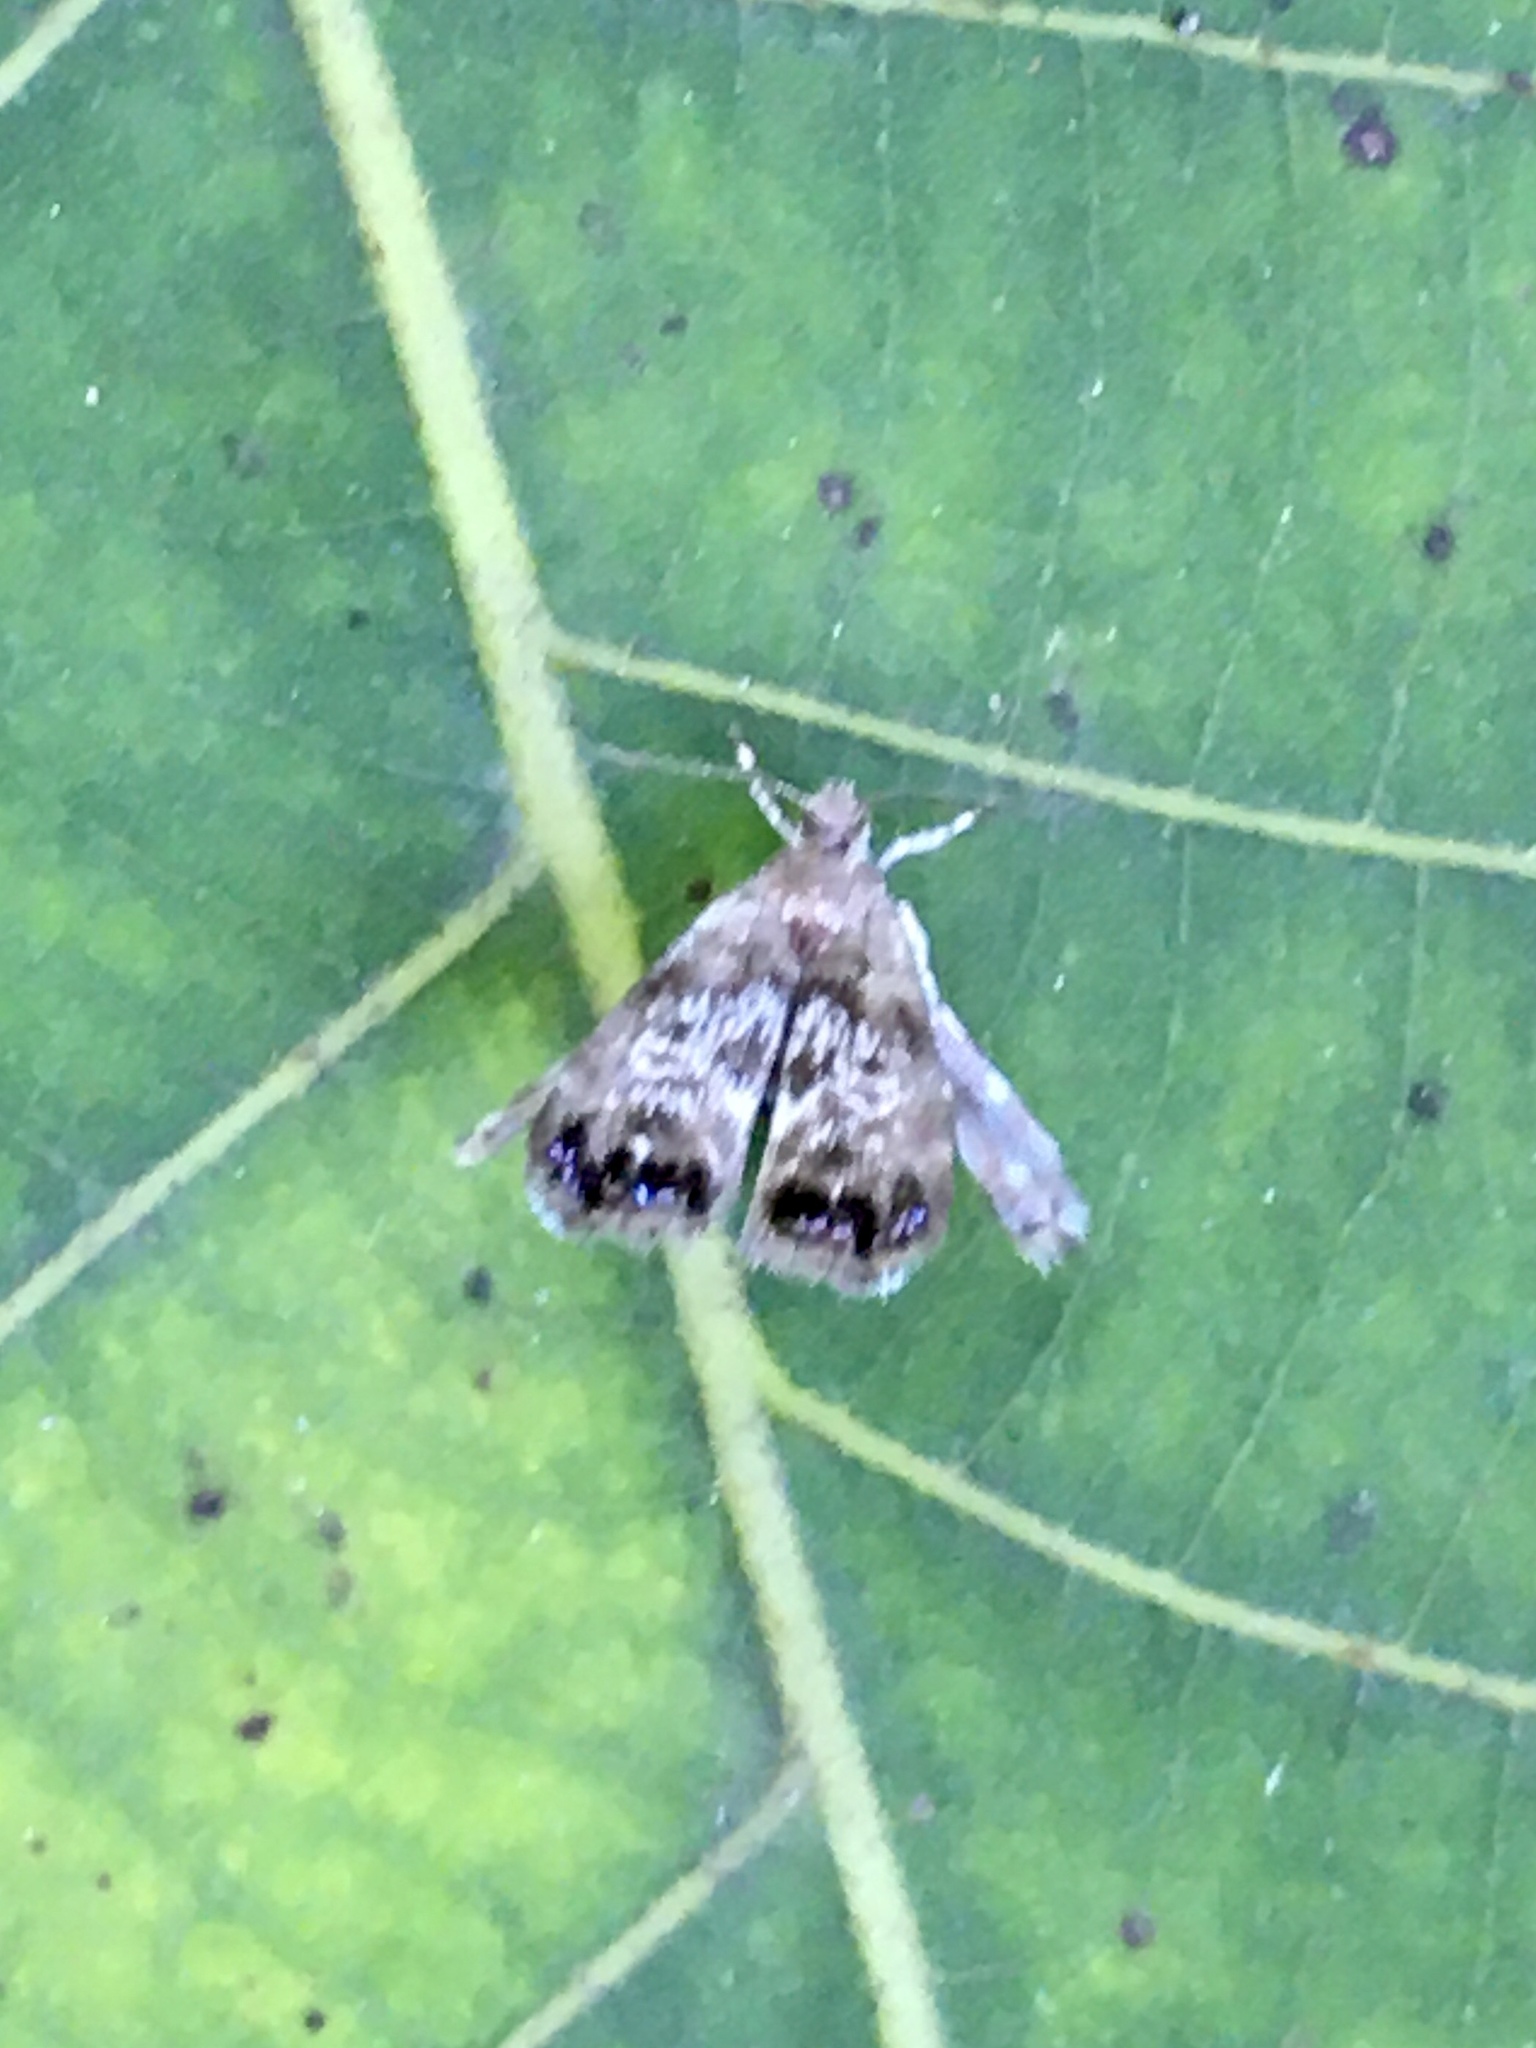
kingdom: Animalia
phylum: Arthropoda
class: Insecta
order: Lepidoptera
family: Choreutidae
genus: Brenthia
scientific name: Brenthia pavonacella
